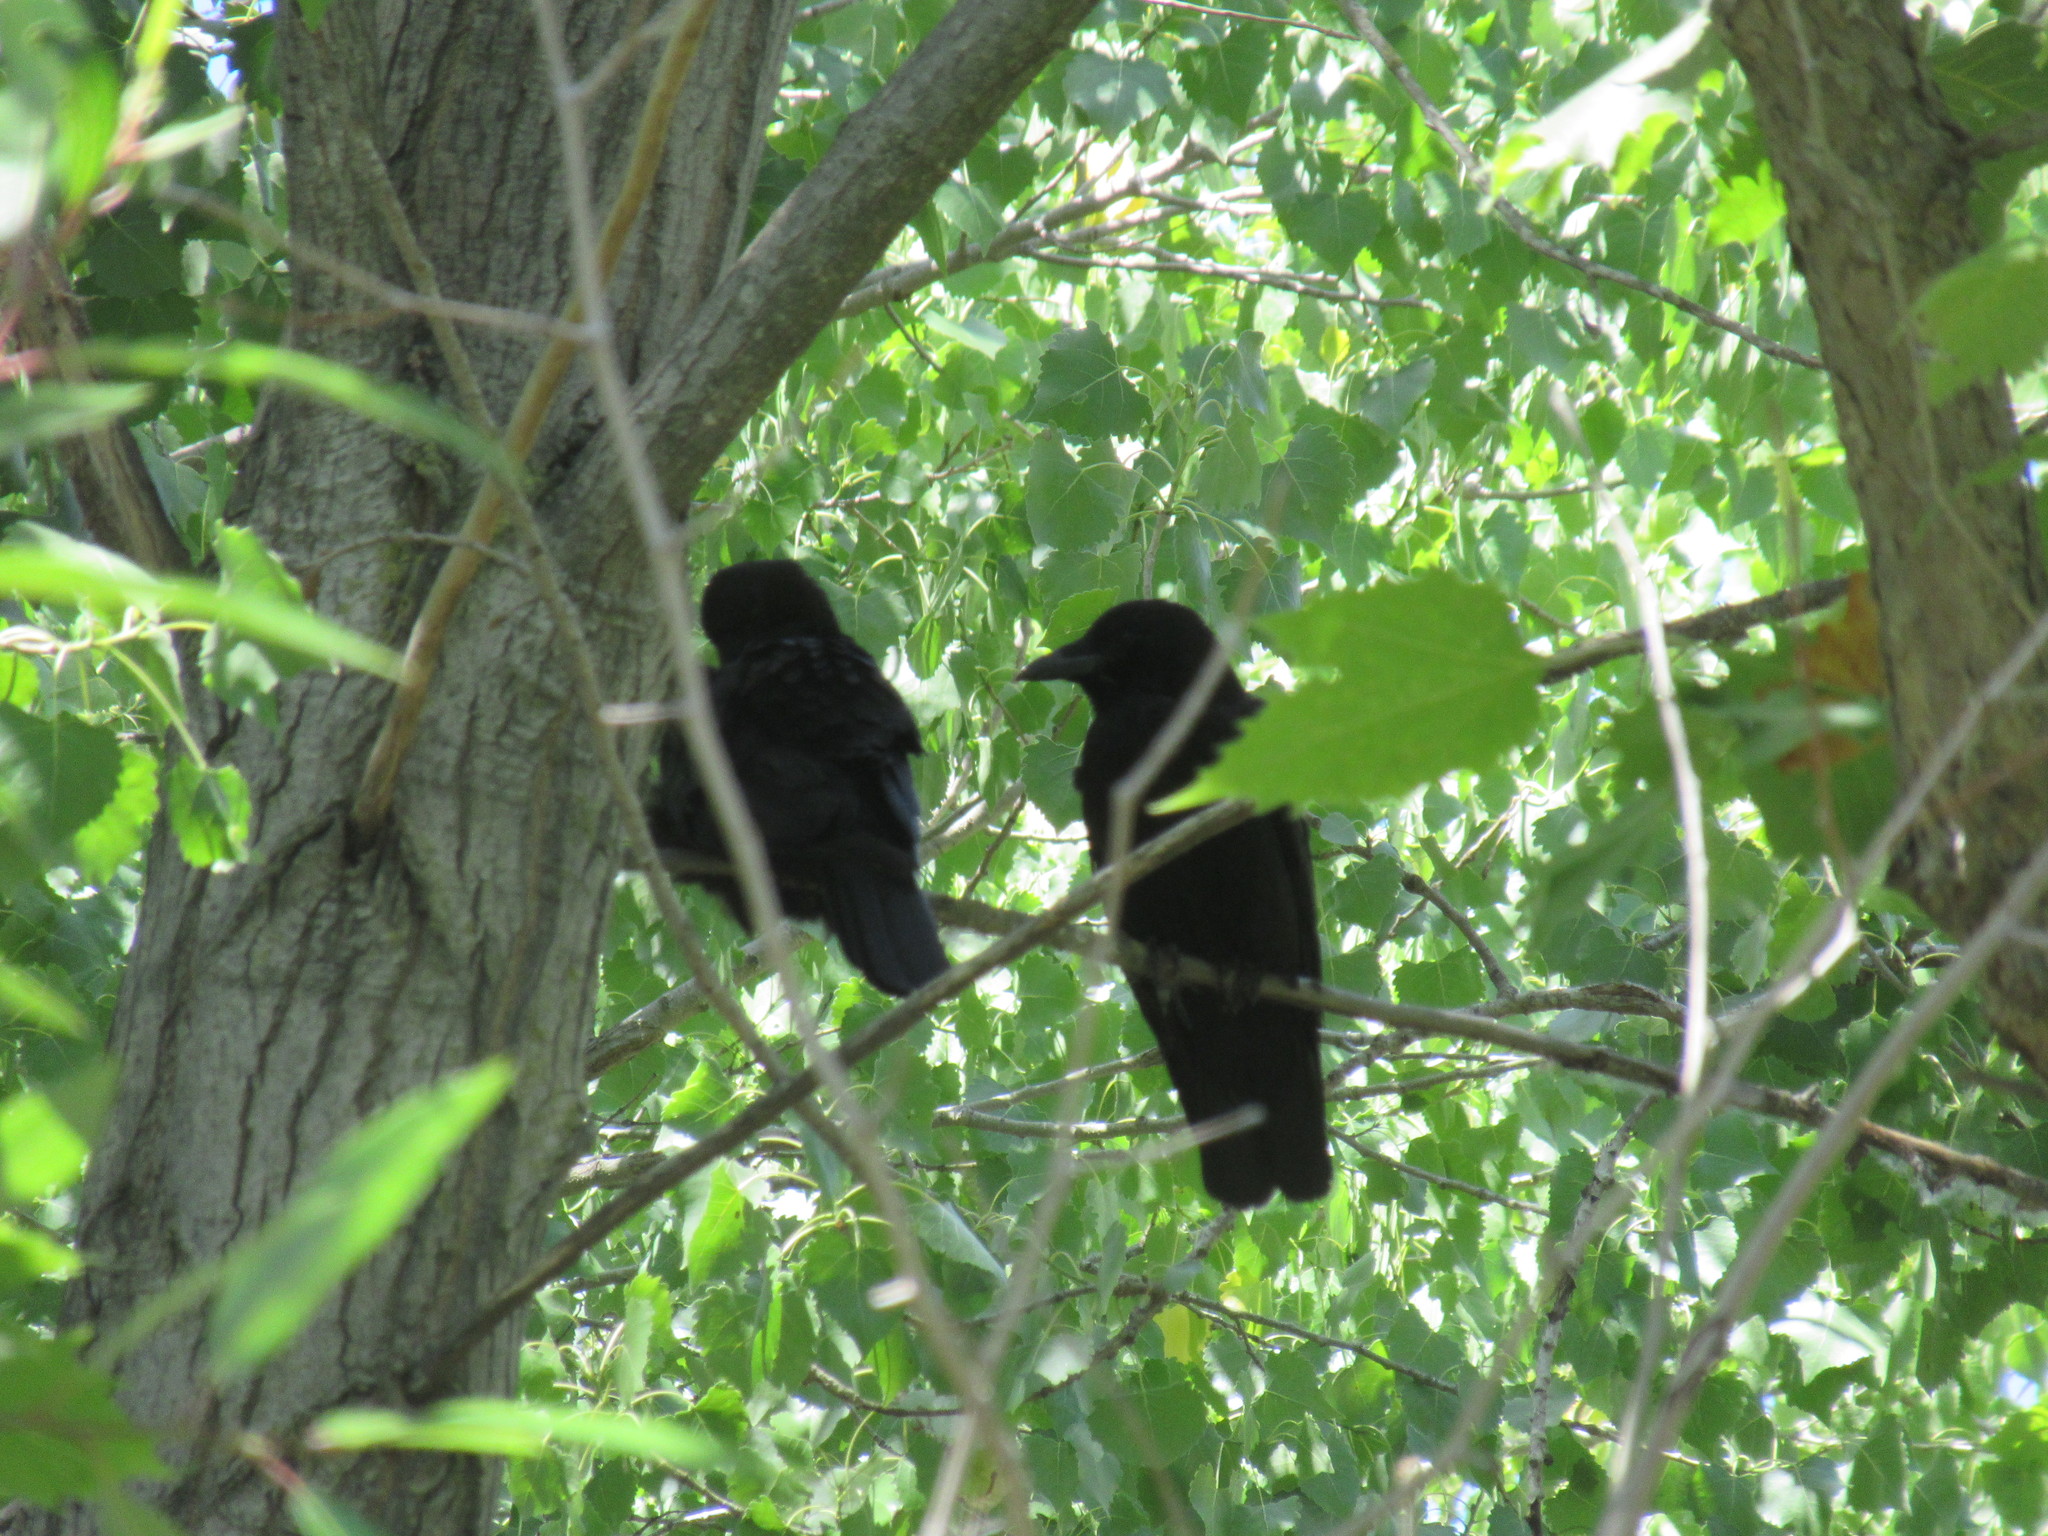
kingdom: Animalia
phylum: Chordata
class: Aves
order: Passeriformes
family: Corvidae
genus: Corvus
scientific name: Corvus brachyrhynchos
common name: American crow
